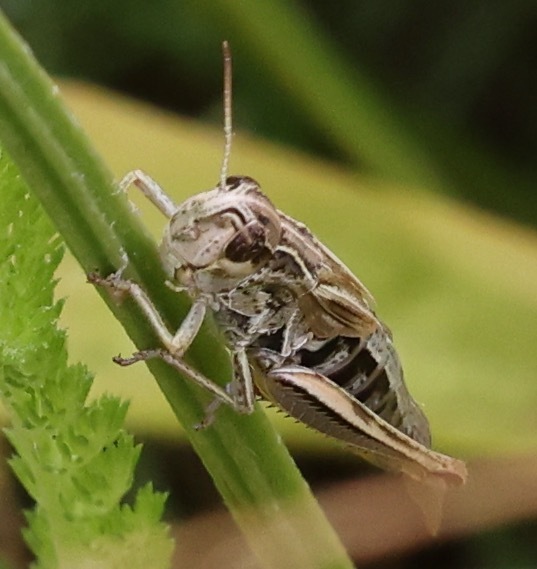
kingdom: Animalia
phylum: Arthropoda
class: Insecta
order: Orthoptera
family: Acrididae
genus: Pseudochorthippus
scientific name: Pseudochorthippus parallelus
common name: Meadow grasshopper
